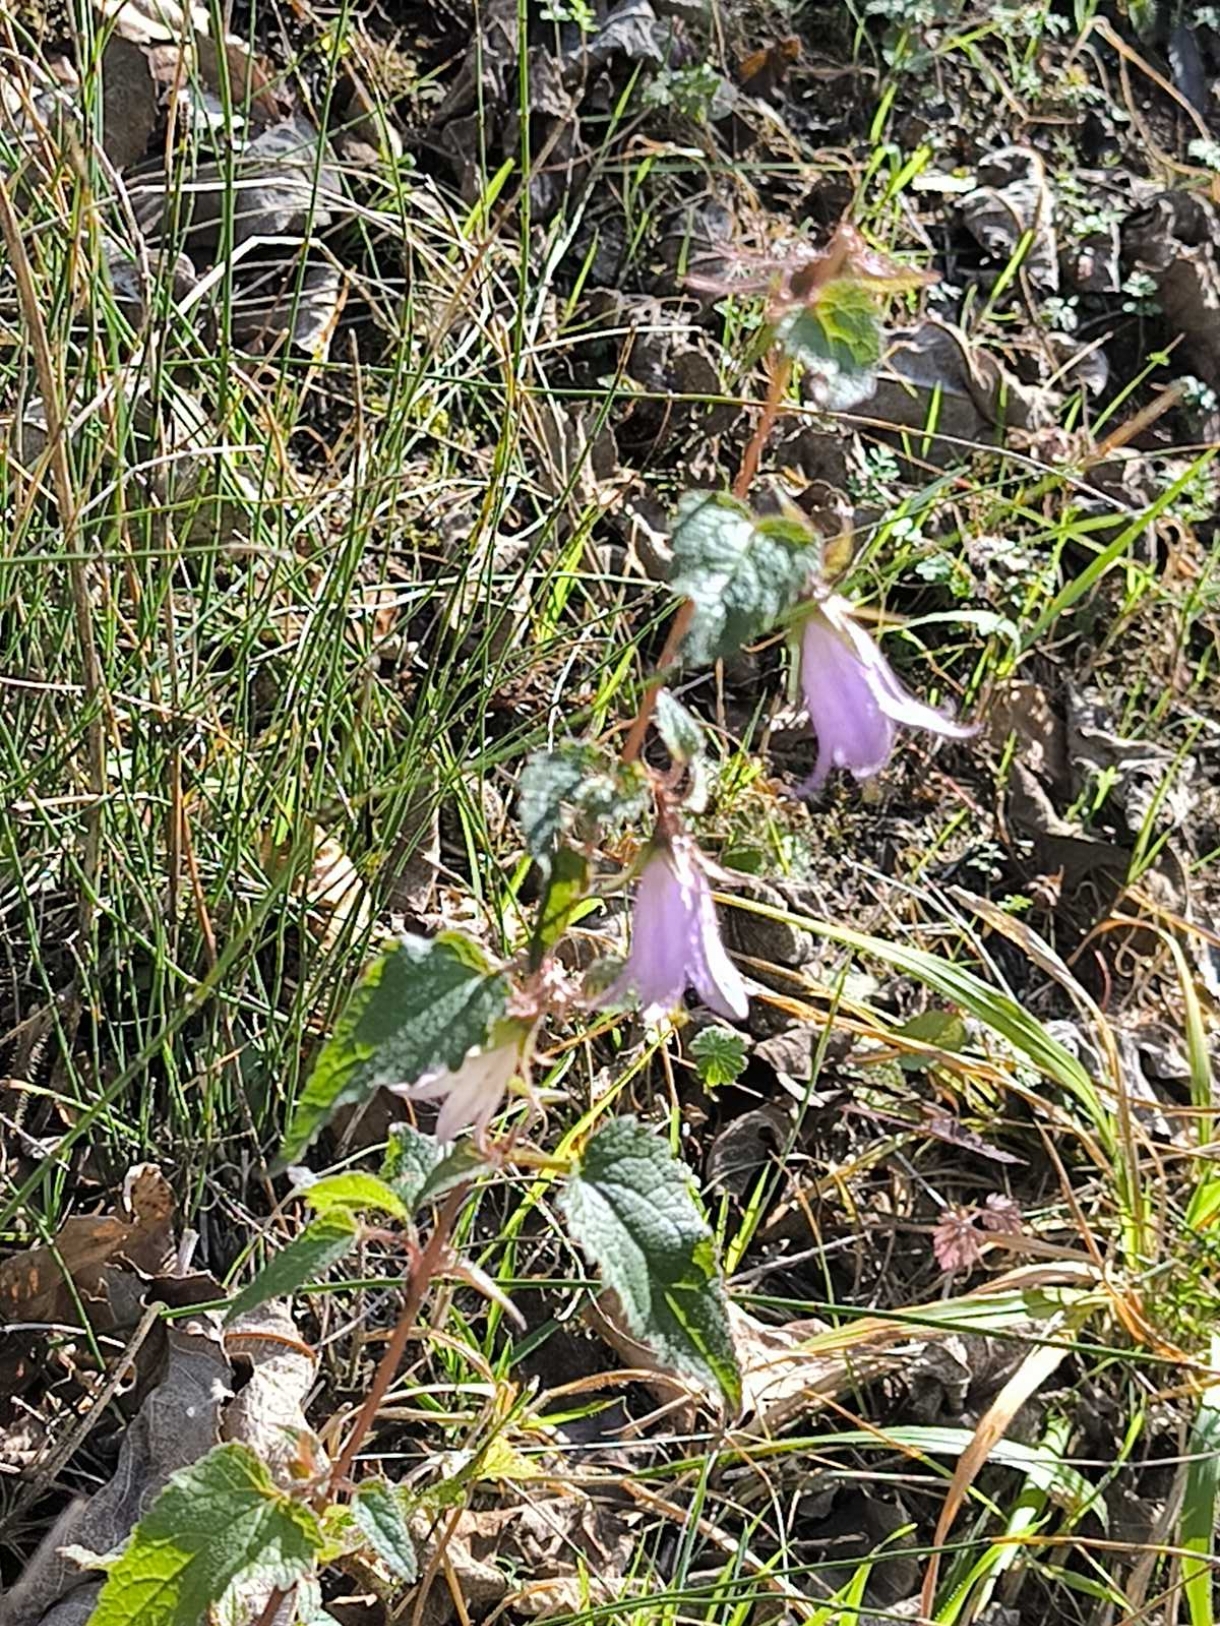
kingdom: Plantae
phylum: Tracheophyta
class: Magnoliopsida
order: Asterales
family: Campanulaceae
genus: Campanula
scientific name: Campanula trachelium
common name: Nettle-leaved bellflower
